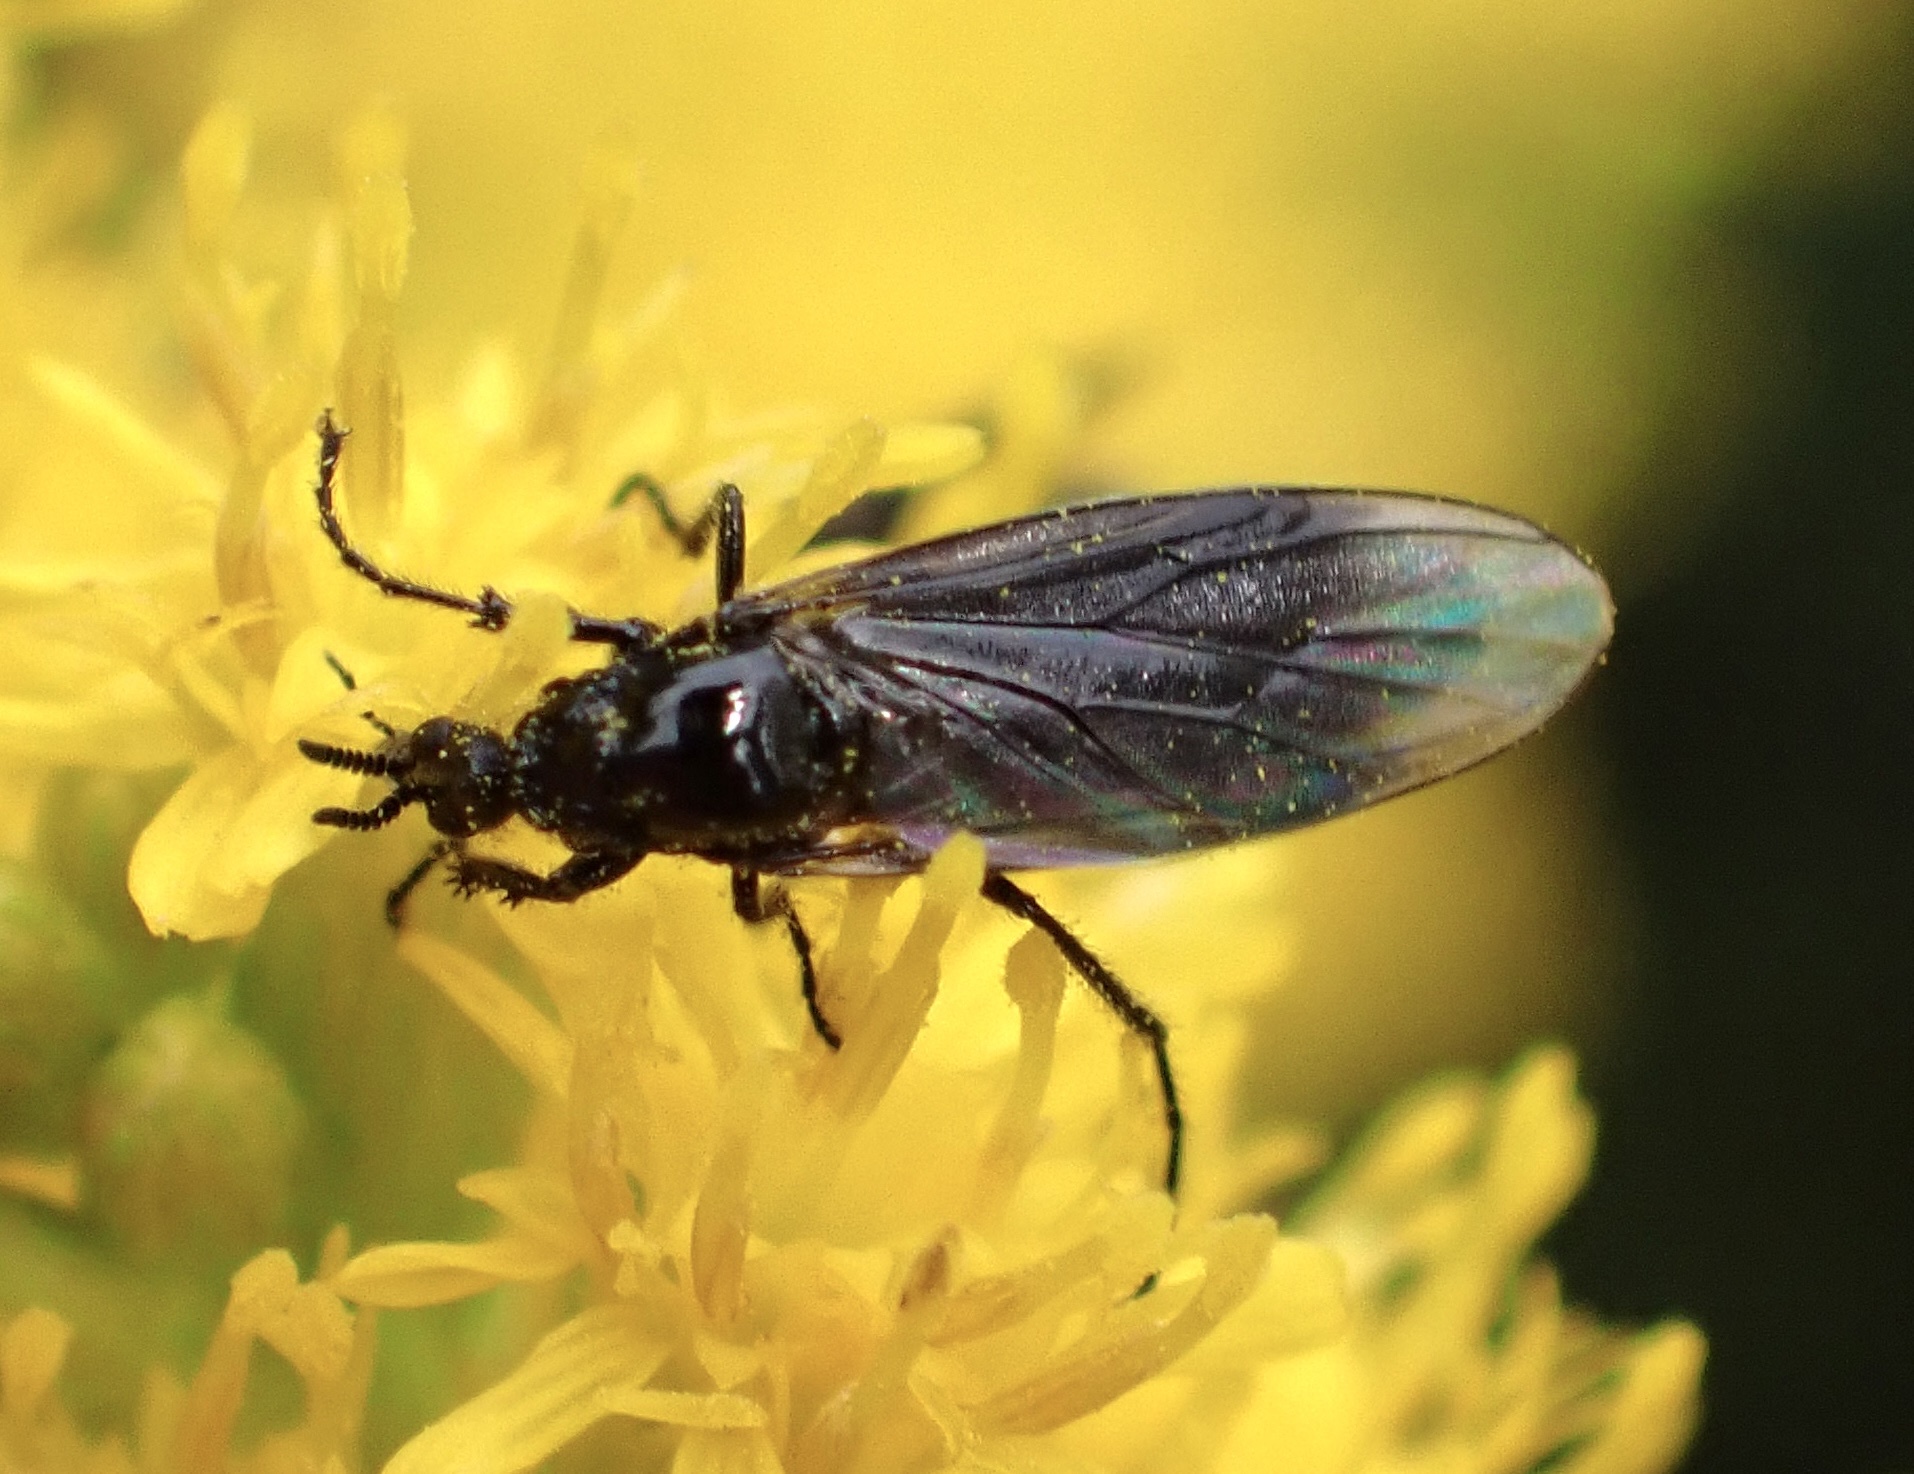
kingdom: Animalia
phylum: Arthropoda
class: Insecta
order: Diptera
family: Bibionidae
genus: Dilophus
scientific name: Dilophus febrilis
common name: Fever fly
